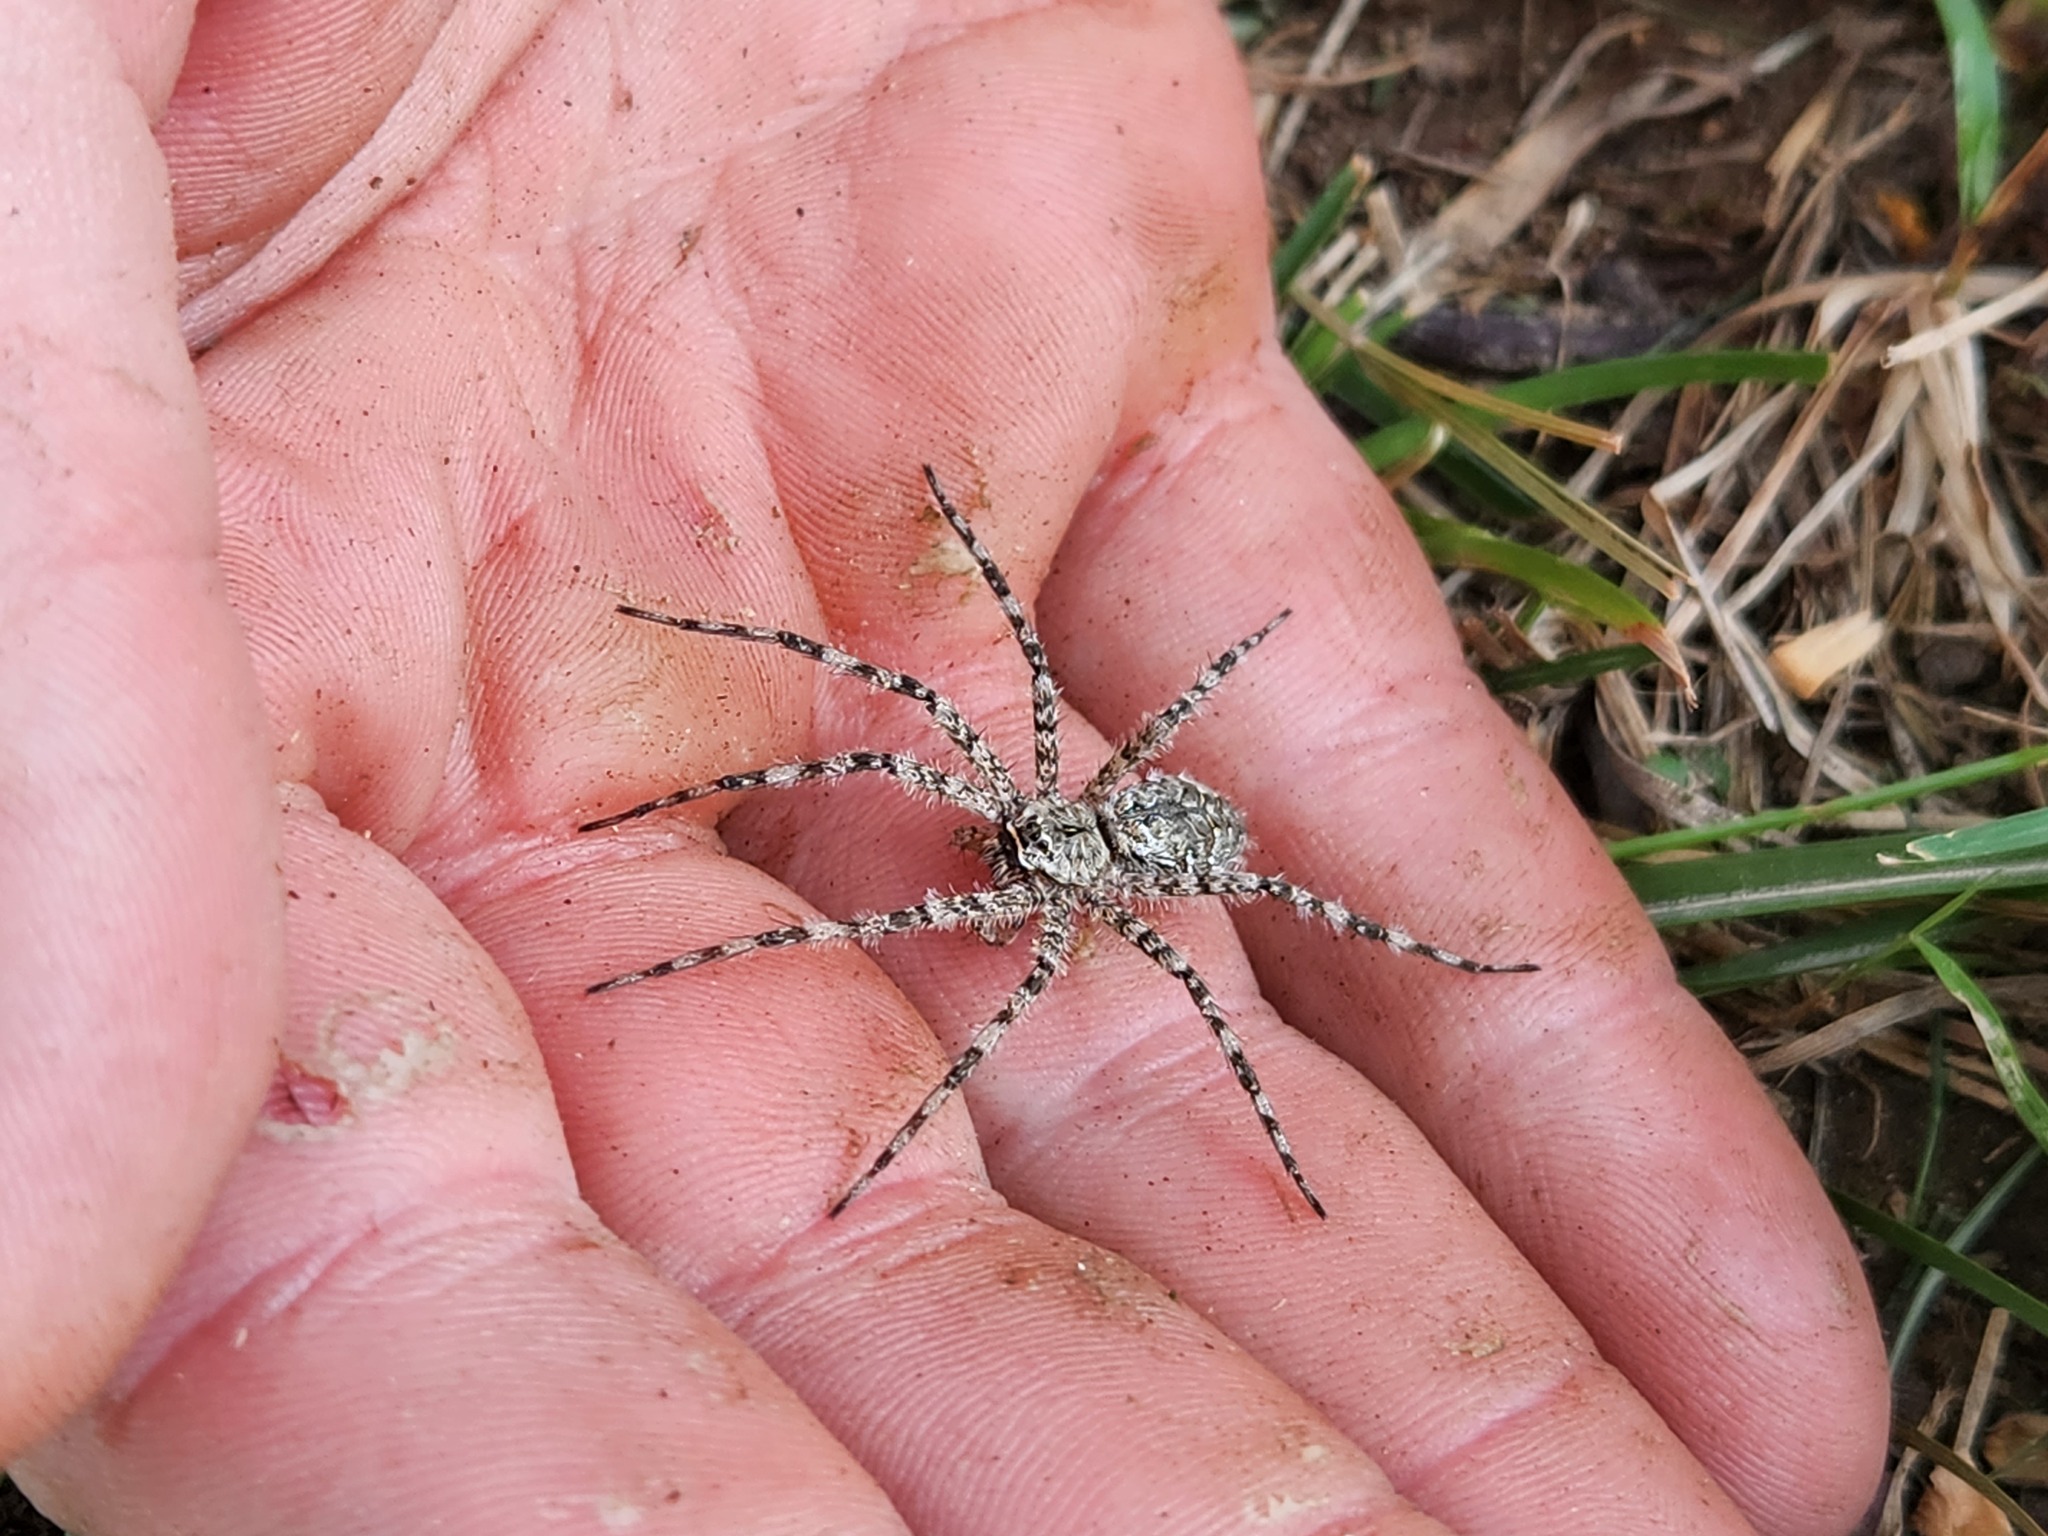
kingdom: Animalia
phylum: Arthropoda
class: Arachnida
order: Araneae
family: Pisauridae
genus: Dolomedes
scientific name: Dolomedes albineus
